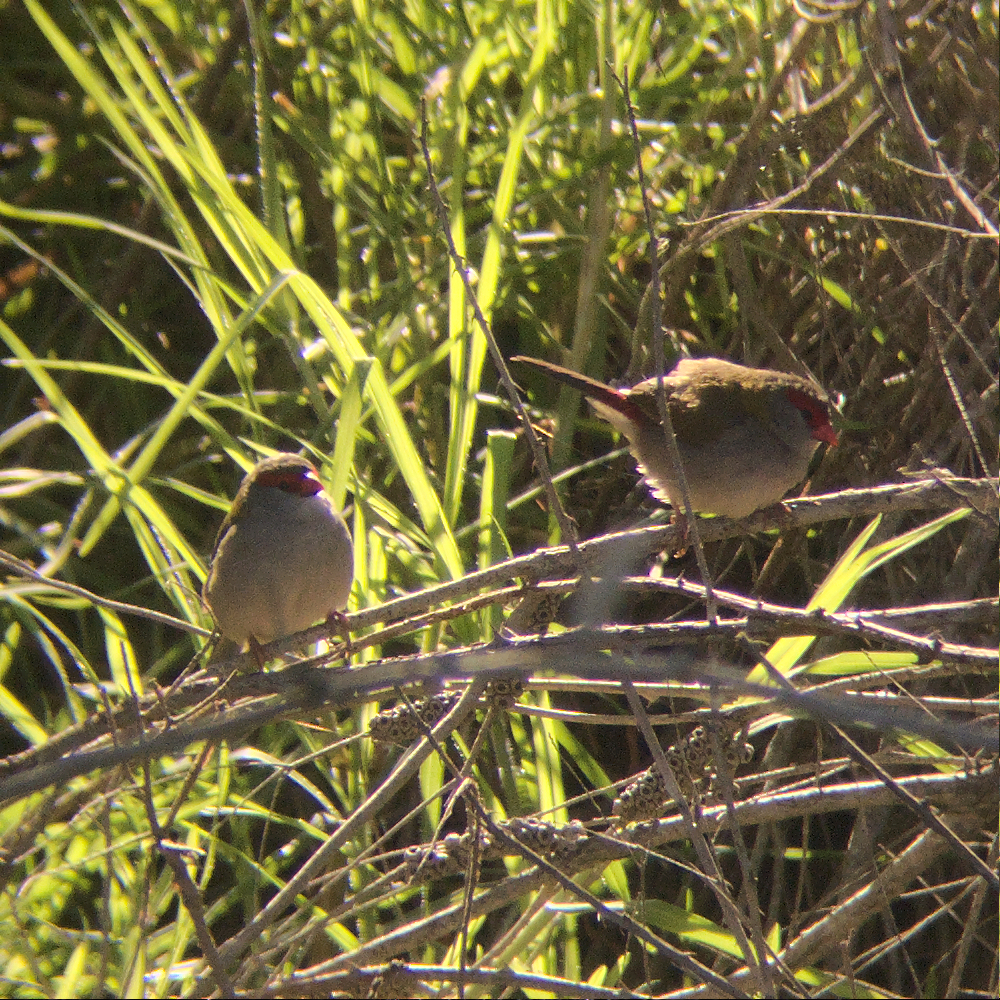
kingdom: Animalia
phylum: Chordata
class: Aves
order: Passeriformes
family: Estrildidae
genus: Neochmia
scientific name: Neochmia temporalis
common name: Red-browed finch
